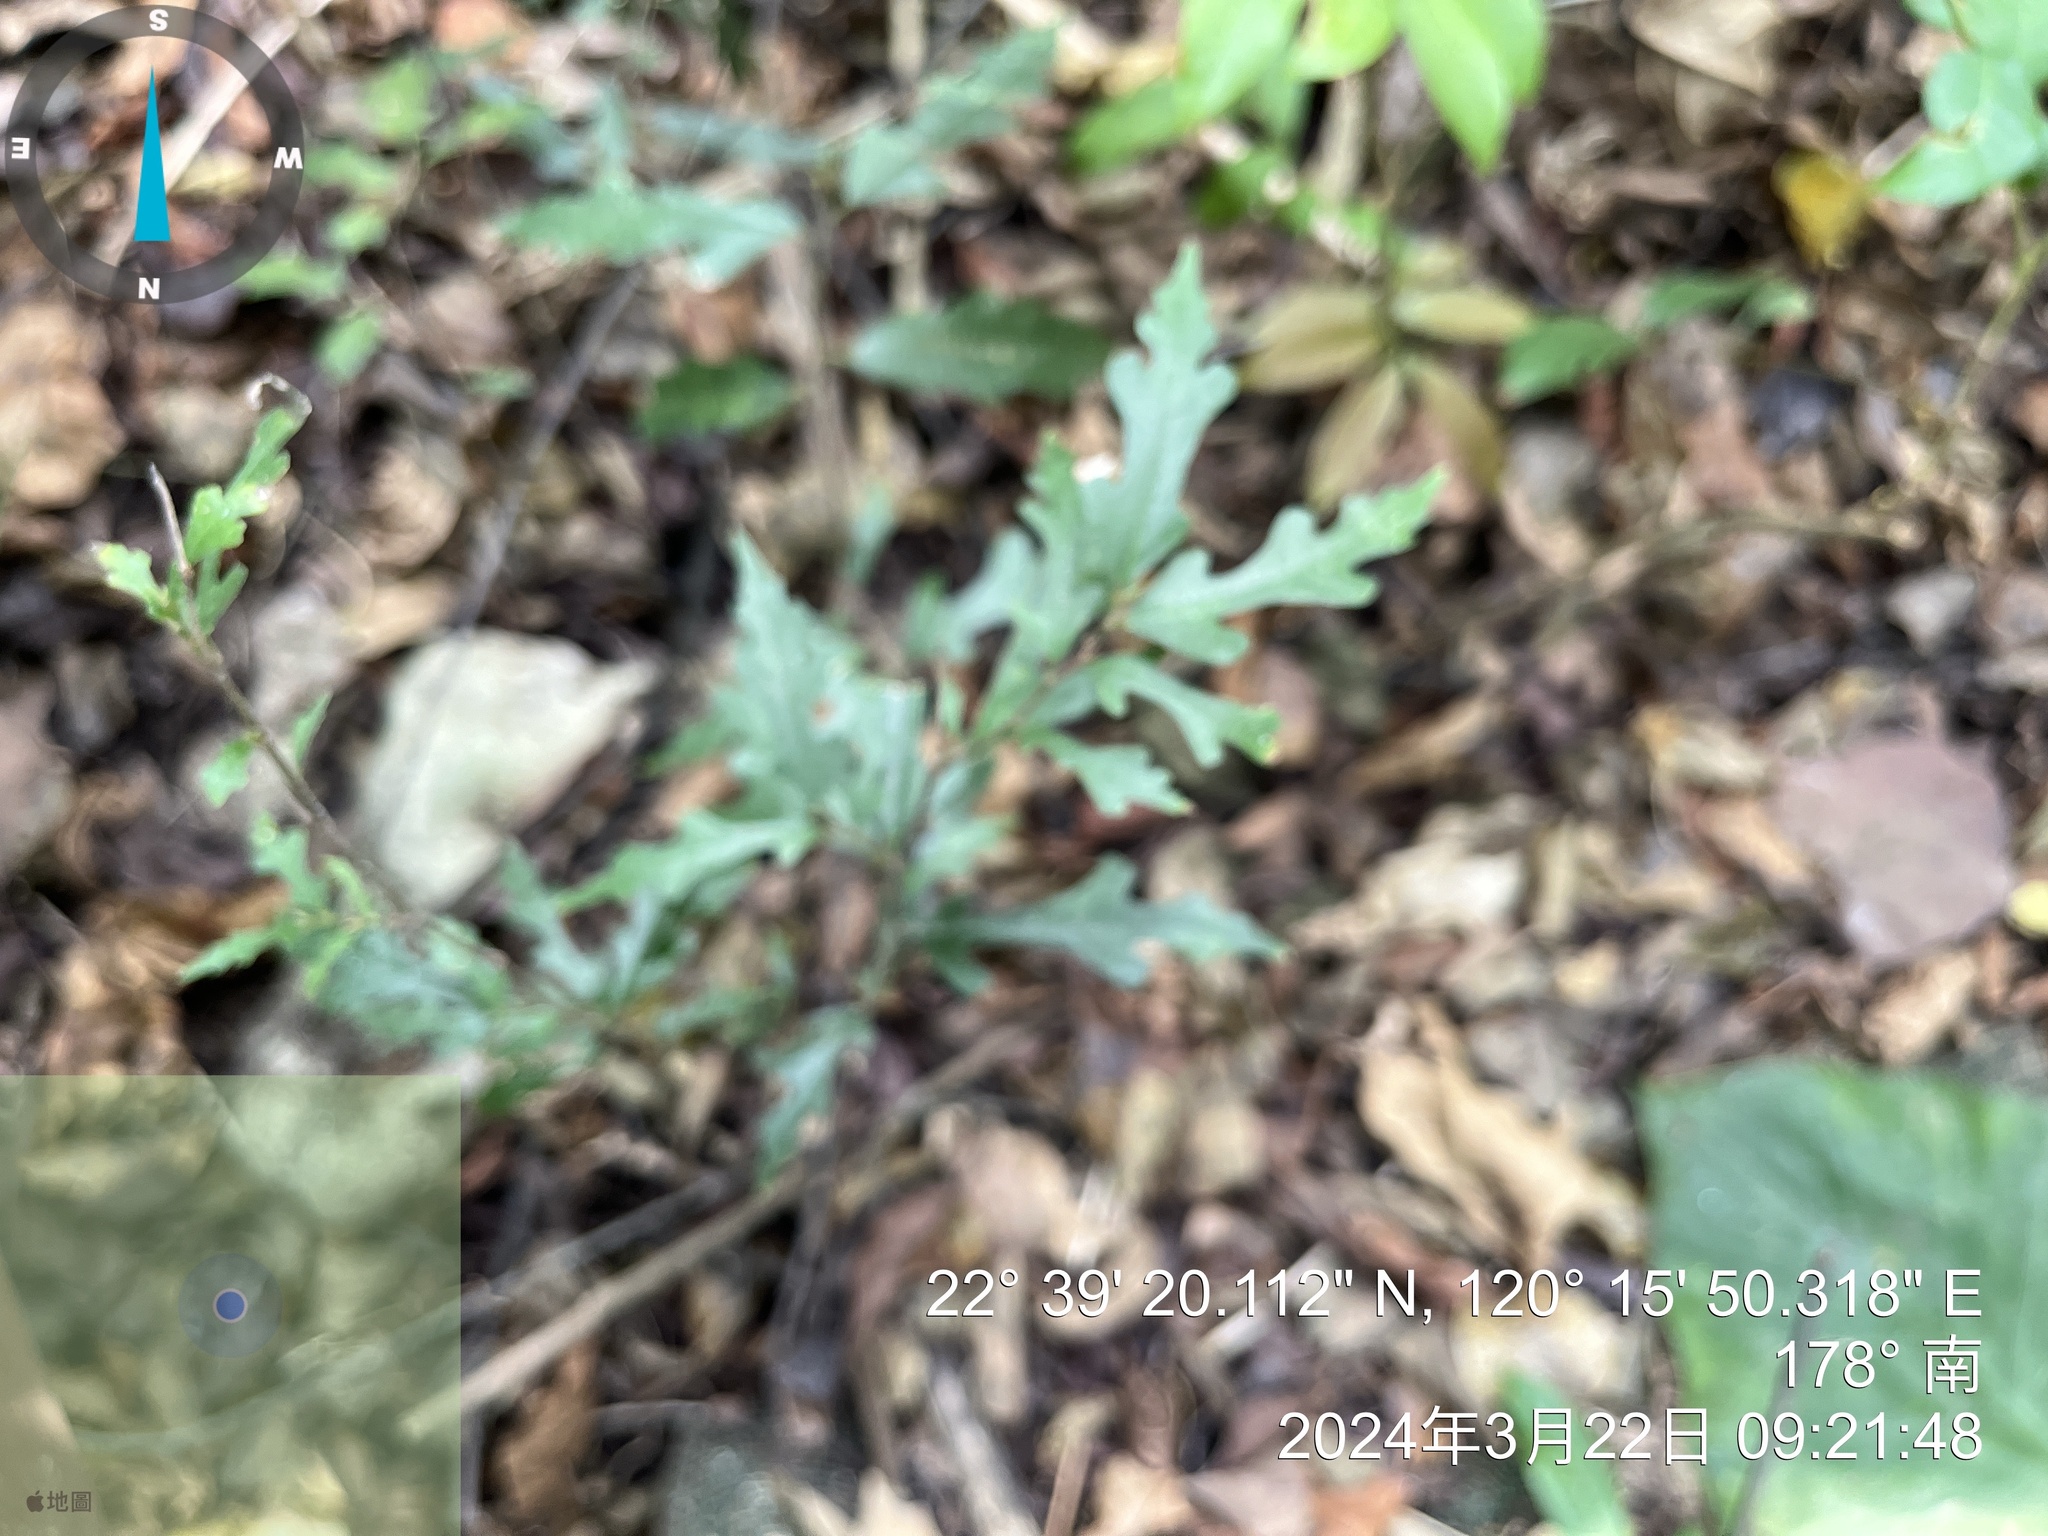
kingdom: Plantae
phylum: Tracheophyta
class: Magnoliopsida
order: Rosales
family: Moraceae
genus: Ficus
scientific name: Ficus ampelos
